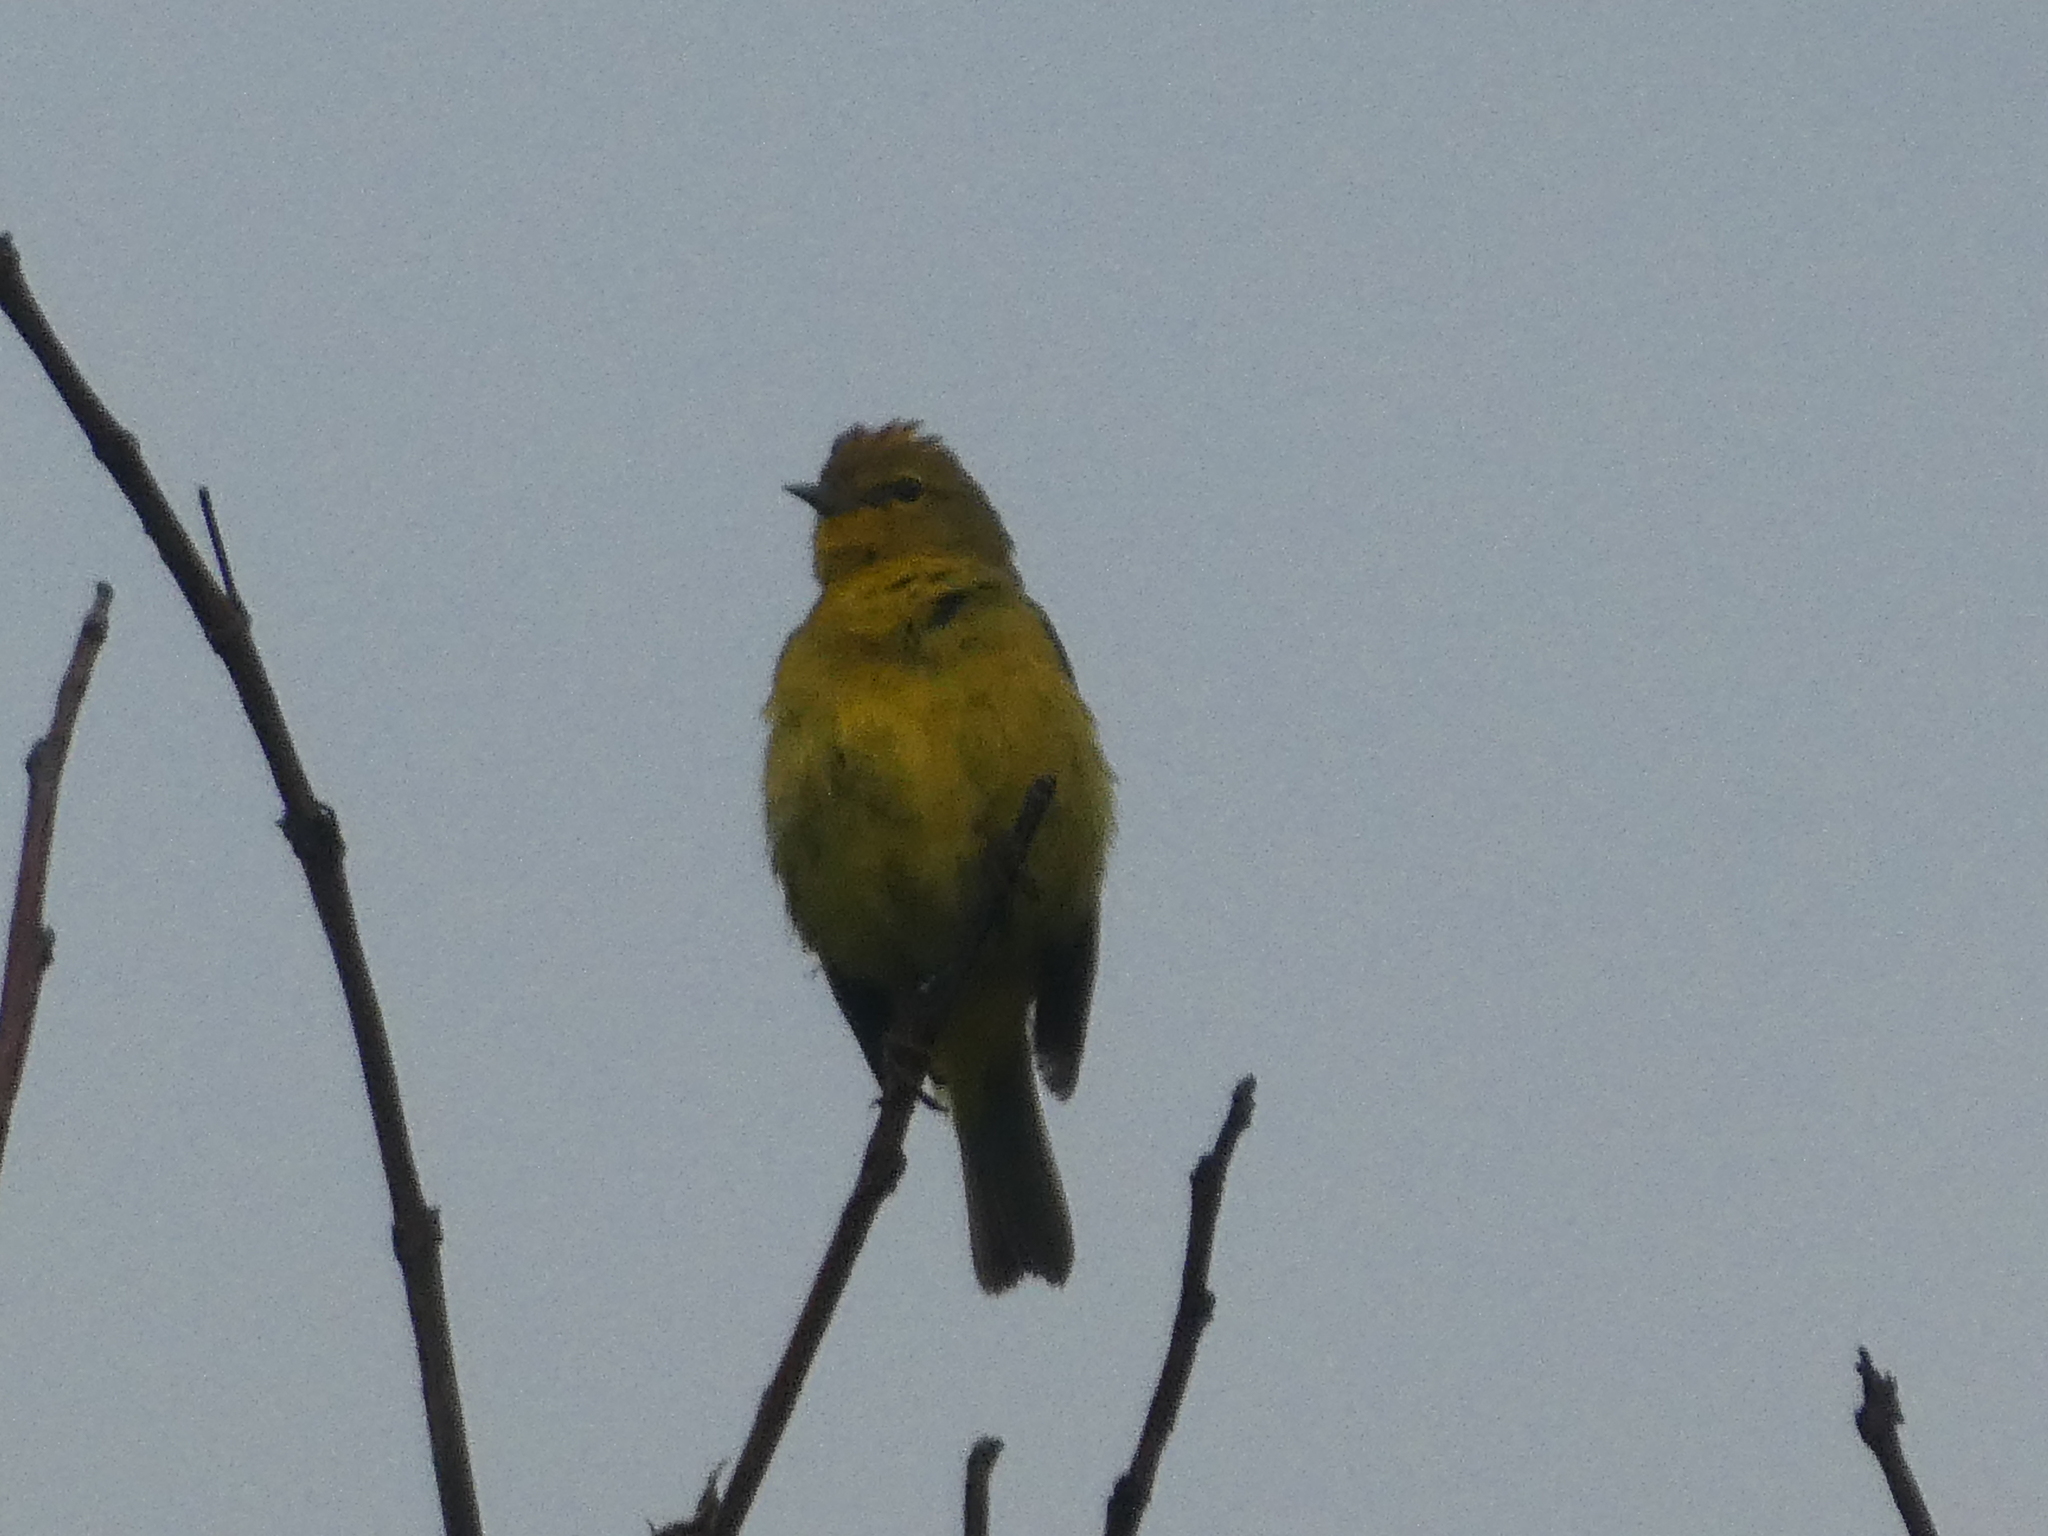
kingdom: Animalia
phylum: Chordata
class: Aves
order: Passeriformes
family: Parulidae
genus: Leiothlypis
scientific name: Leiothlypis celata
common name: Orange-crowned warbler
